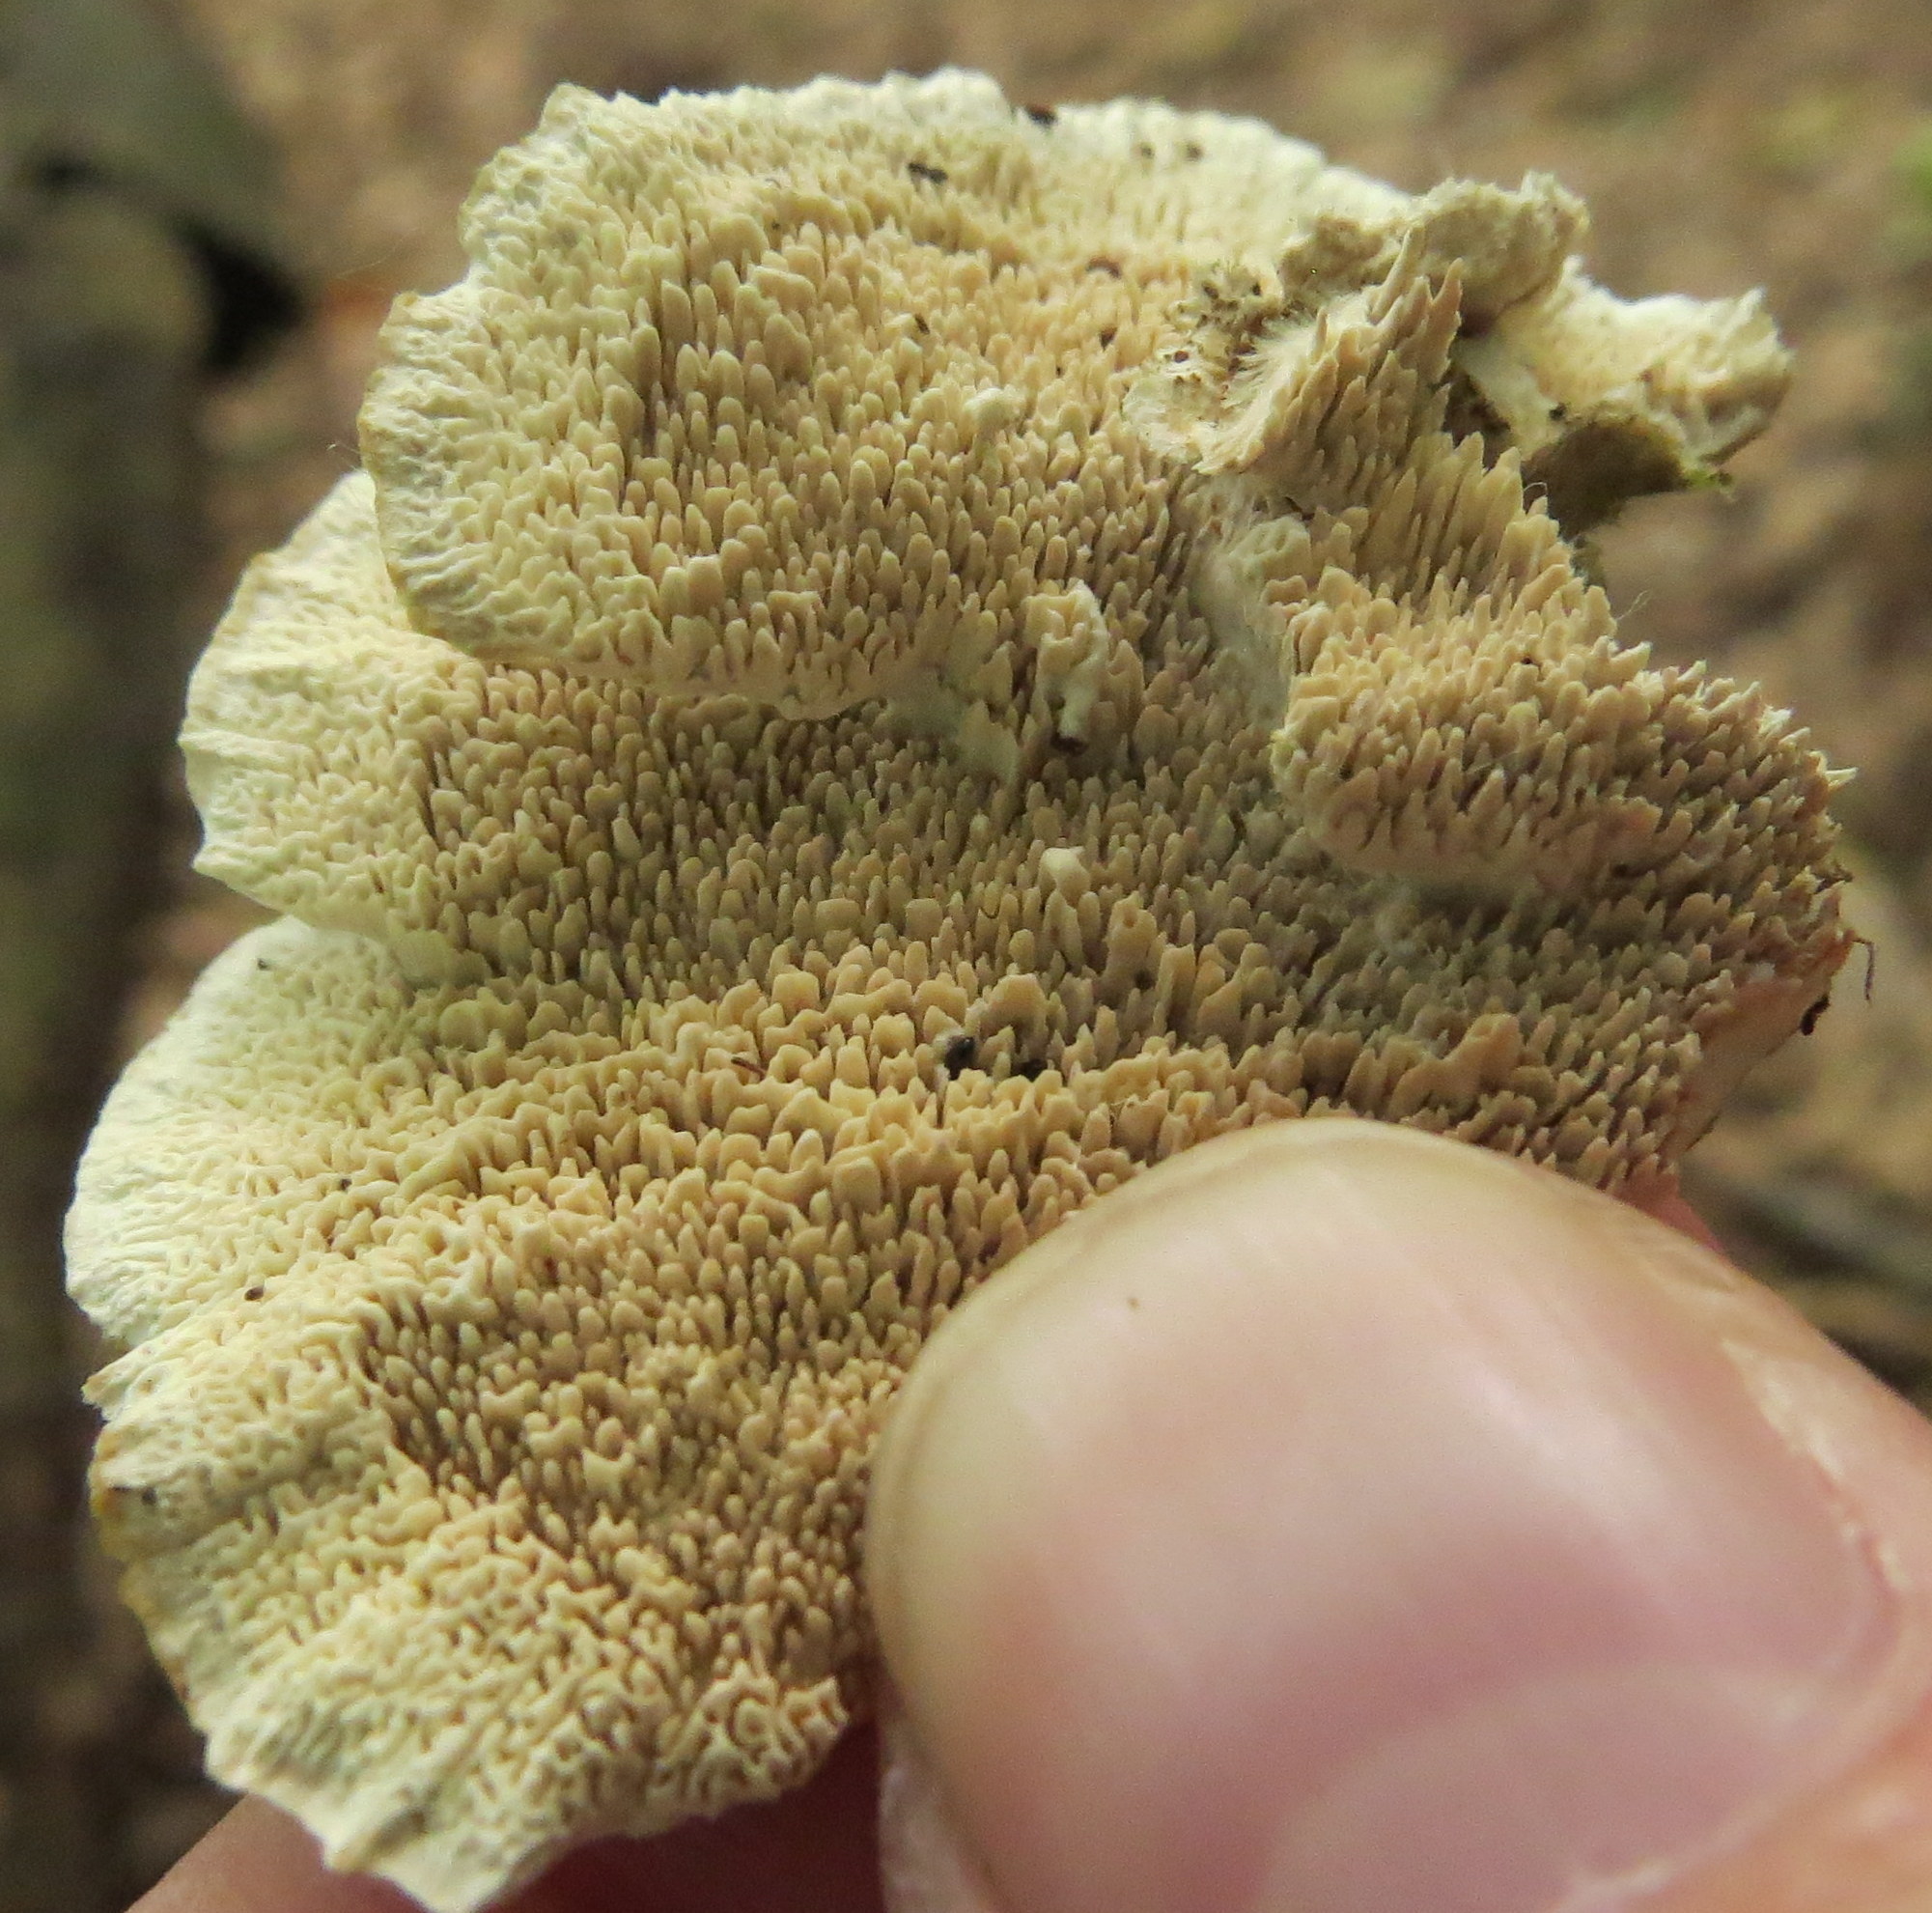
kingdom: Fungi
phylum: Basidiomycota
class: Agaricomycetes
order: Polyporales
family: Cerrenaceae
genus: Cerrena
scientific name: Cerrena unicolor
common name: Mossy maze polypore
